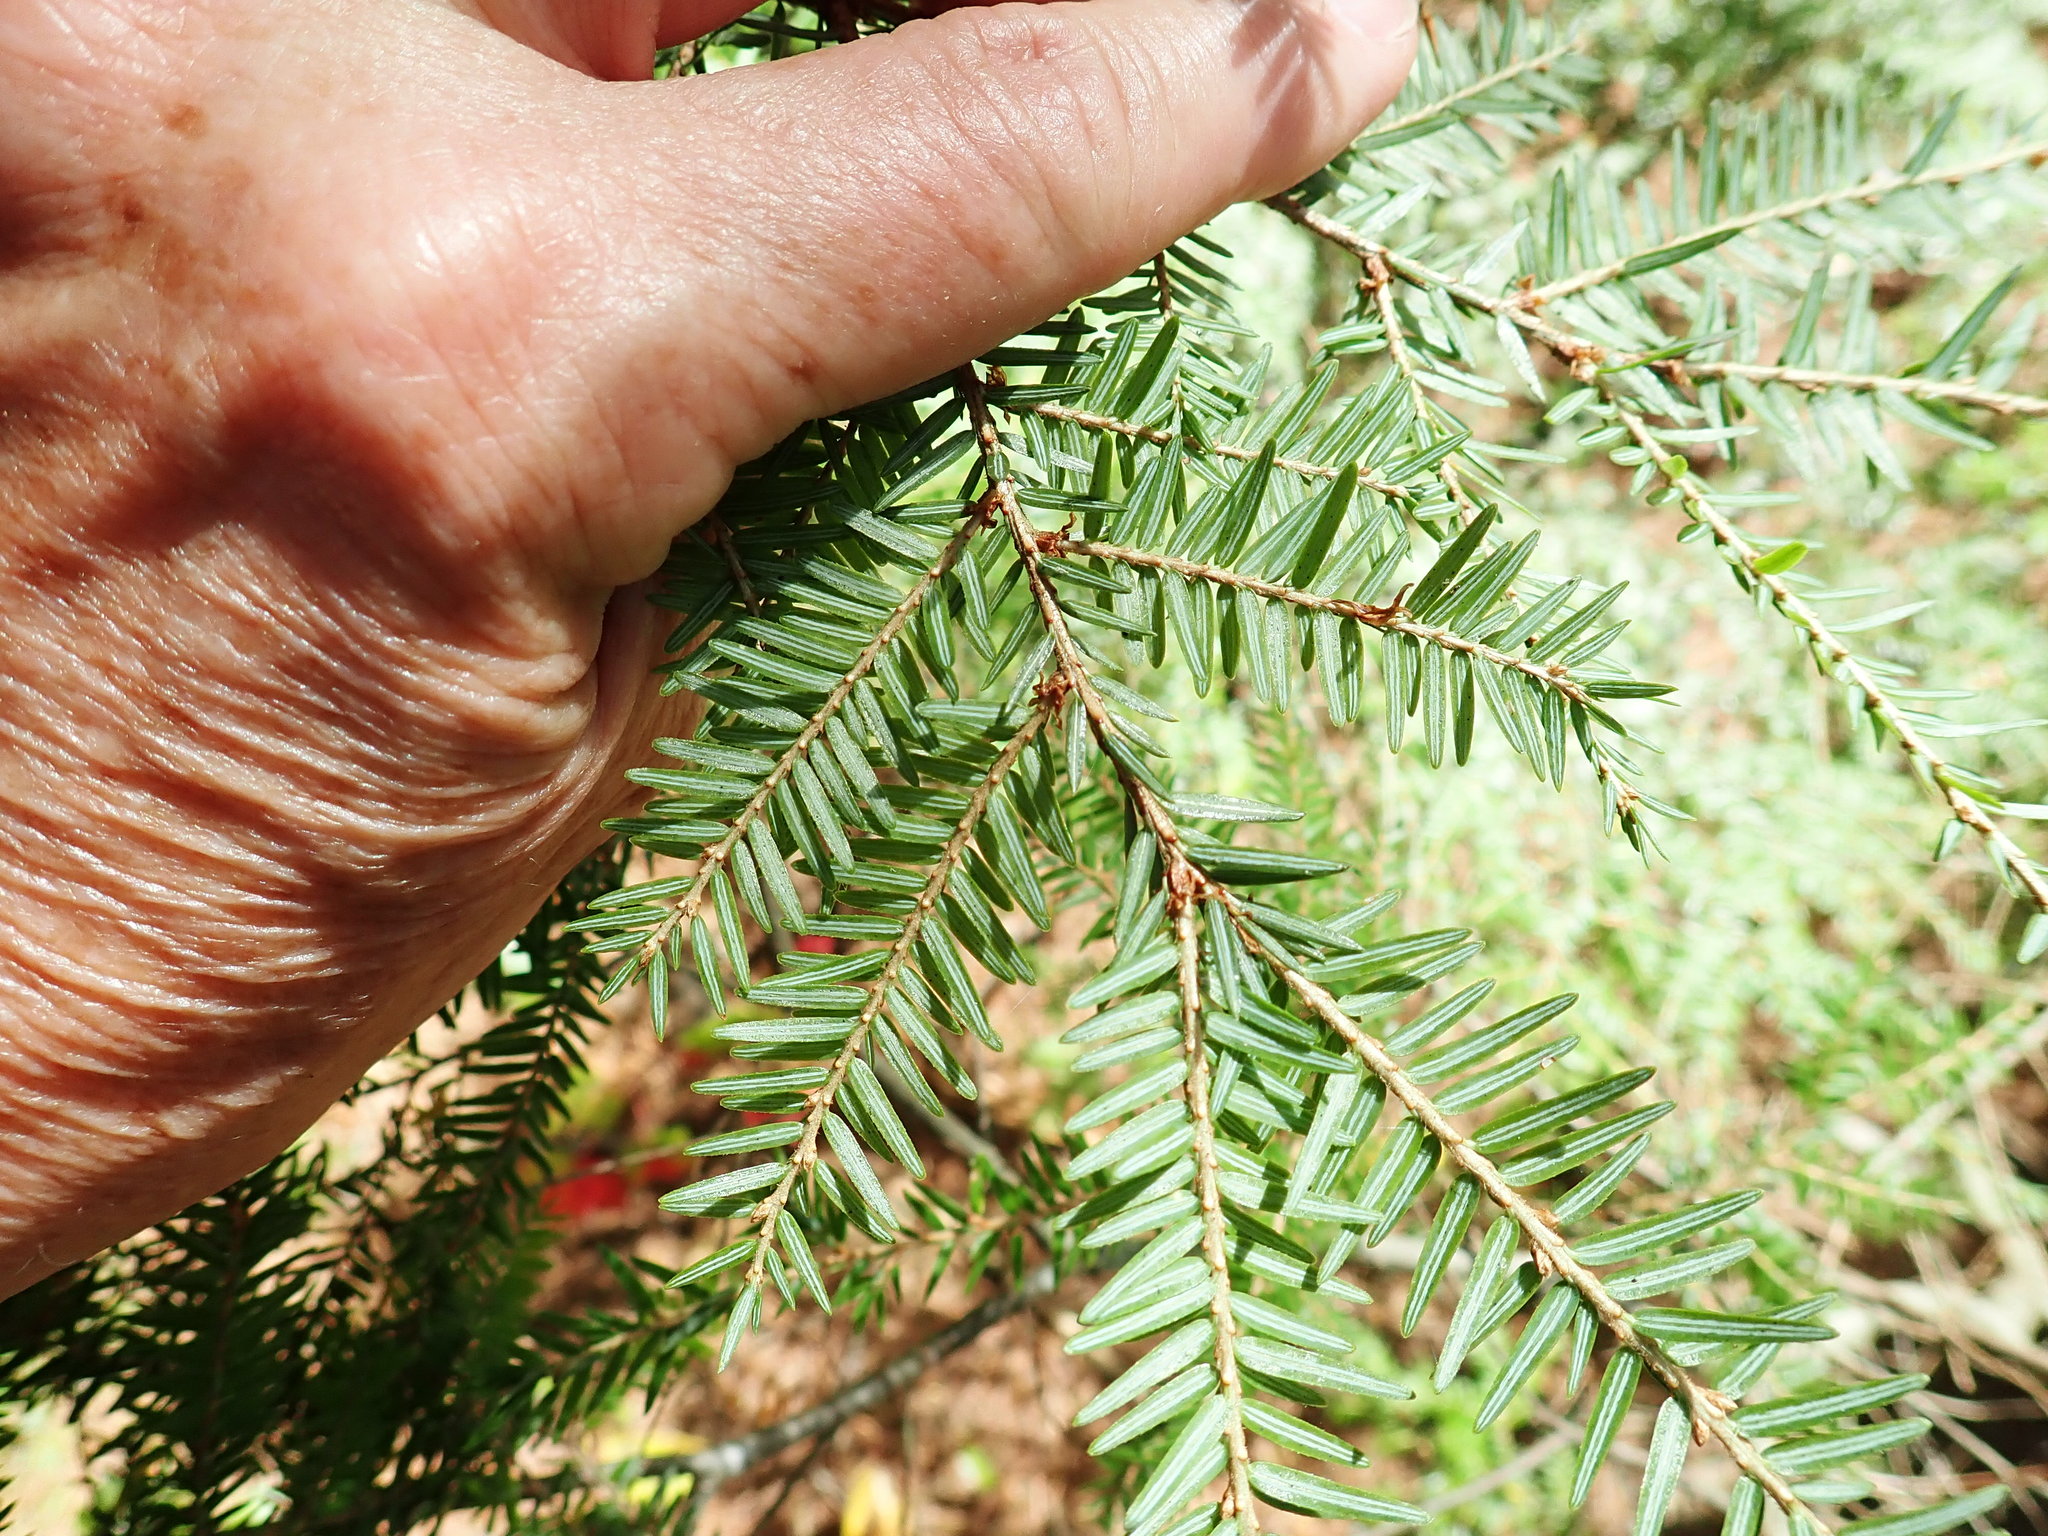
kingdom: Plantae
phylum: Tracheophyta
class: Pinopsida
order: Pinales
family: Pinaceae
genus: Tsuga
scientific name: Tsuga canadensis
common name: Eastern hemlock
